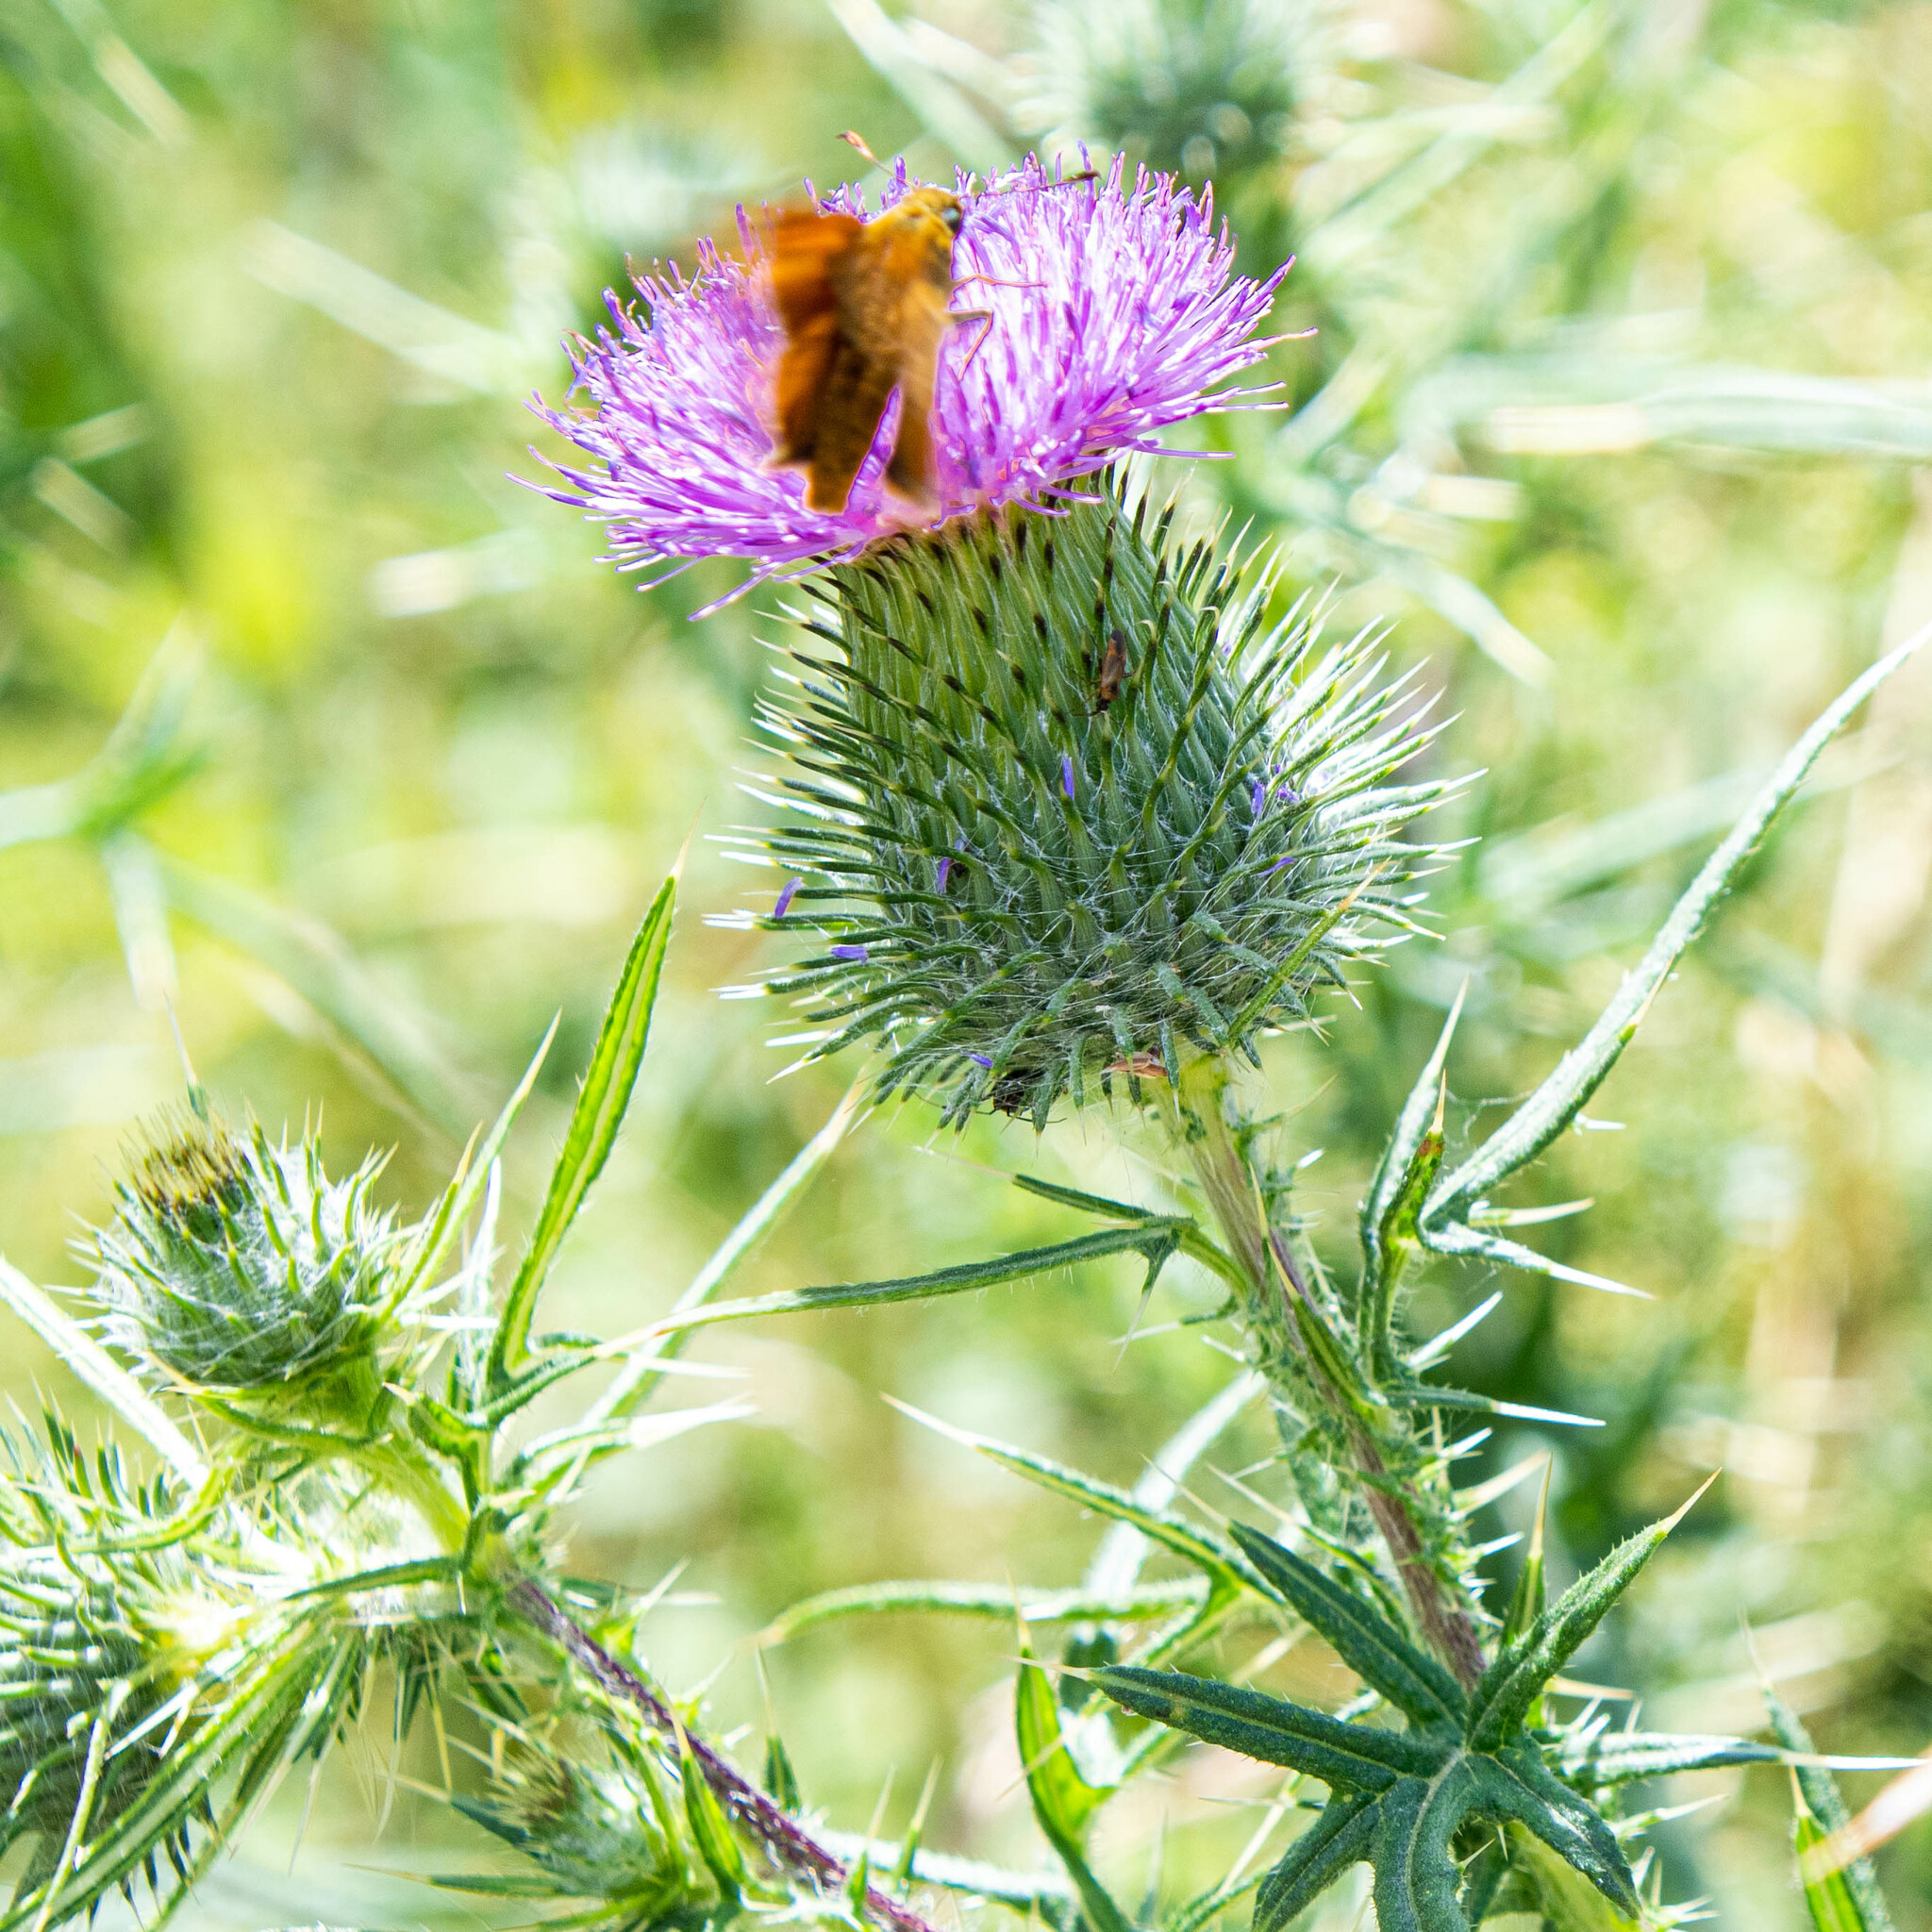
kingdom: Plantae
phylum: Tracheophyta
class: Magnoliopsida
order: Asterales
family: Asteraceae
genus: Cirsium
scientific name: Cirsium vulgare
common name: Bull thistle
